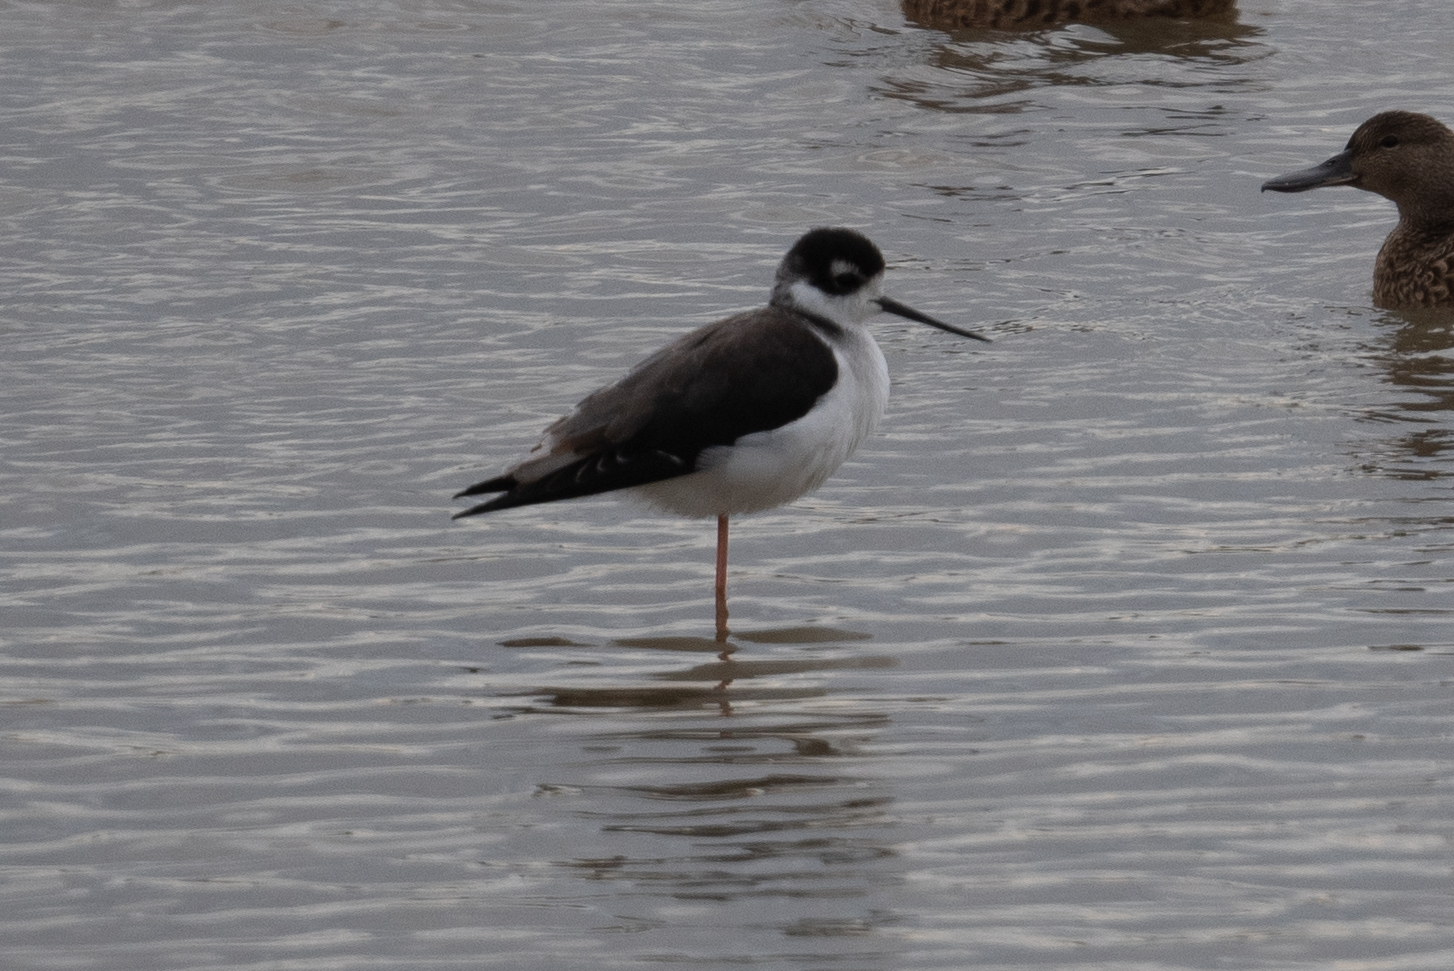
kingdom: Animalia
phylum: Chordata
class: Aves
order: Charadriiformes
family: Recurvirostridae
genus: Himantopus
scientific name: Himantopus mexicanus
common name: Black-necked stilt
